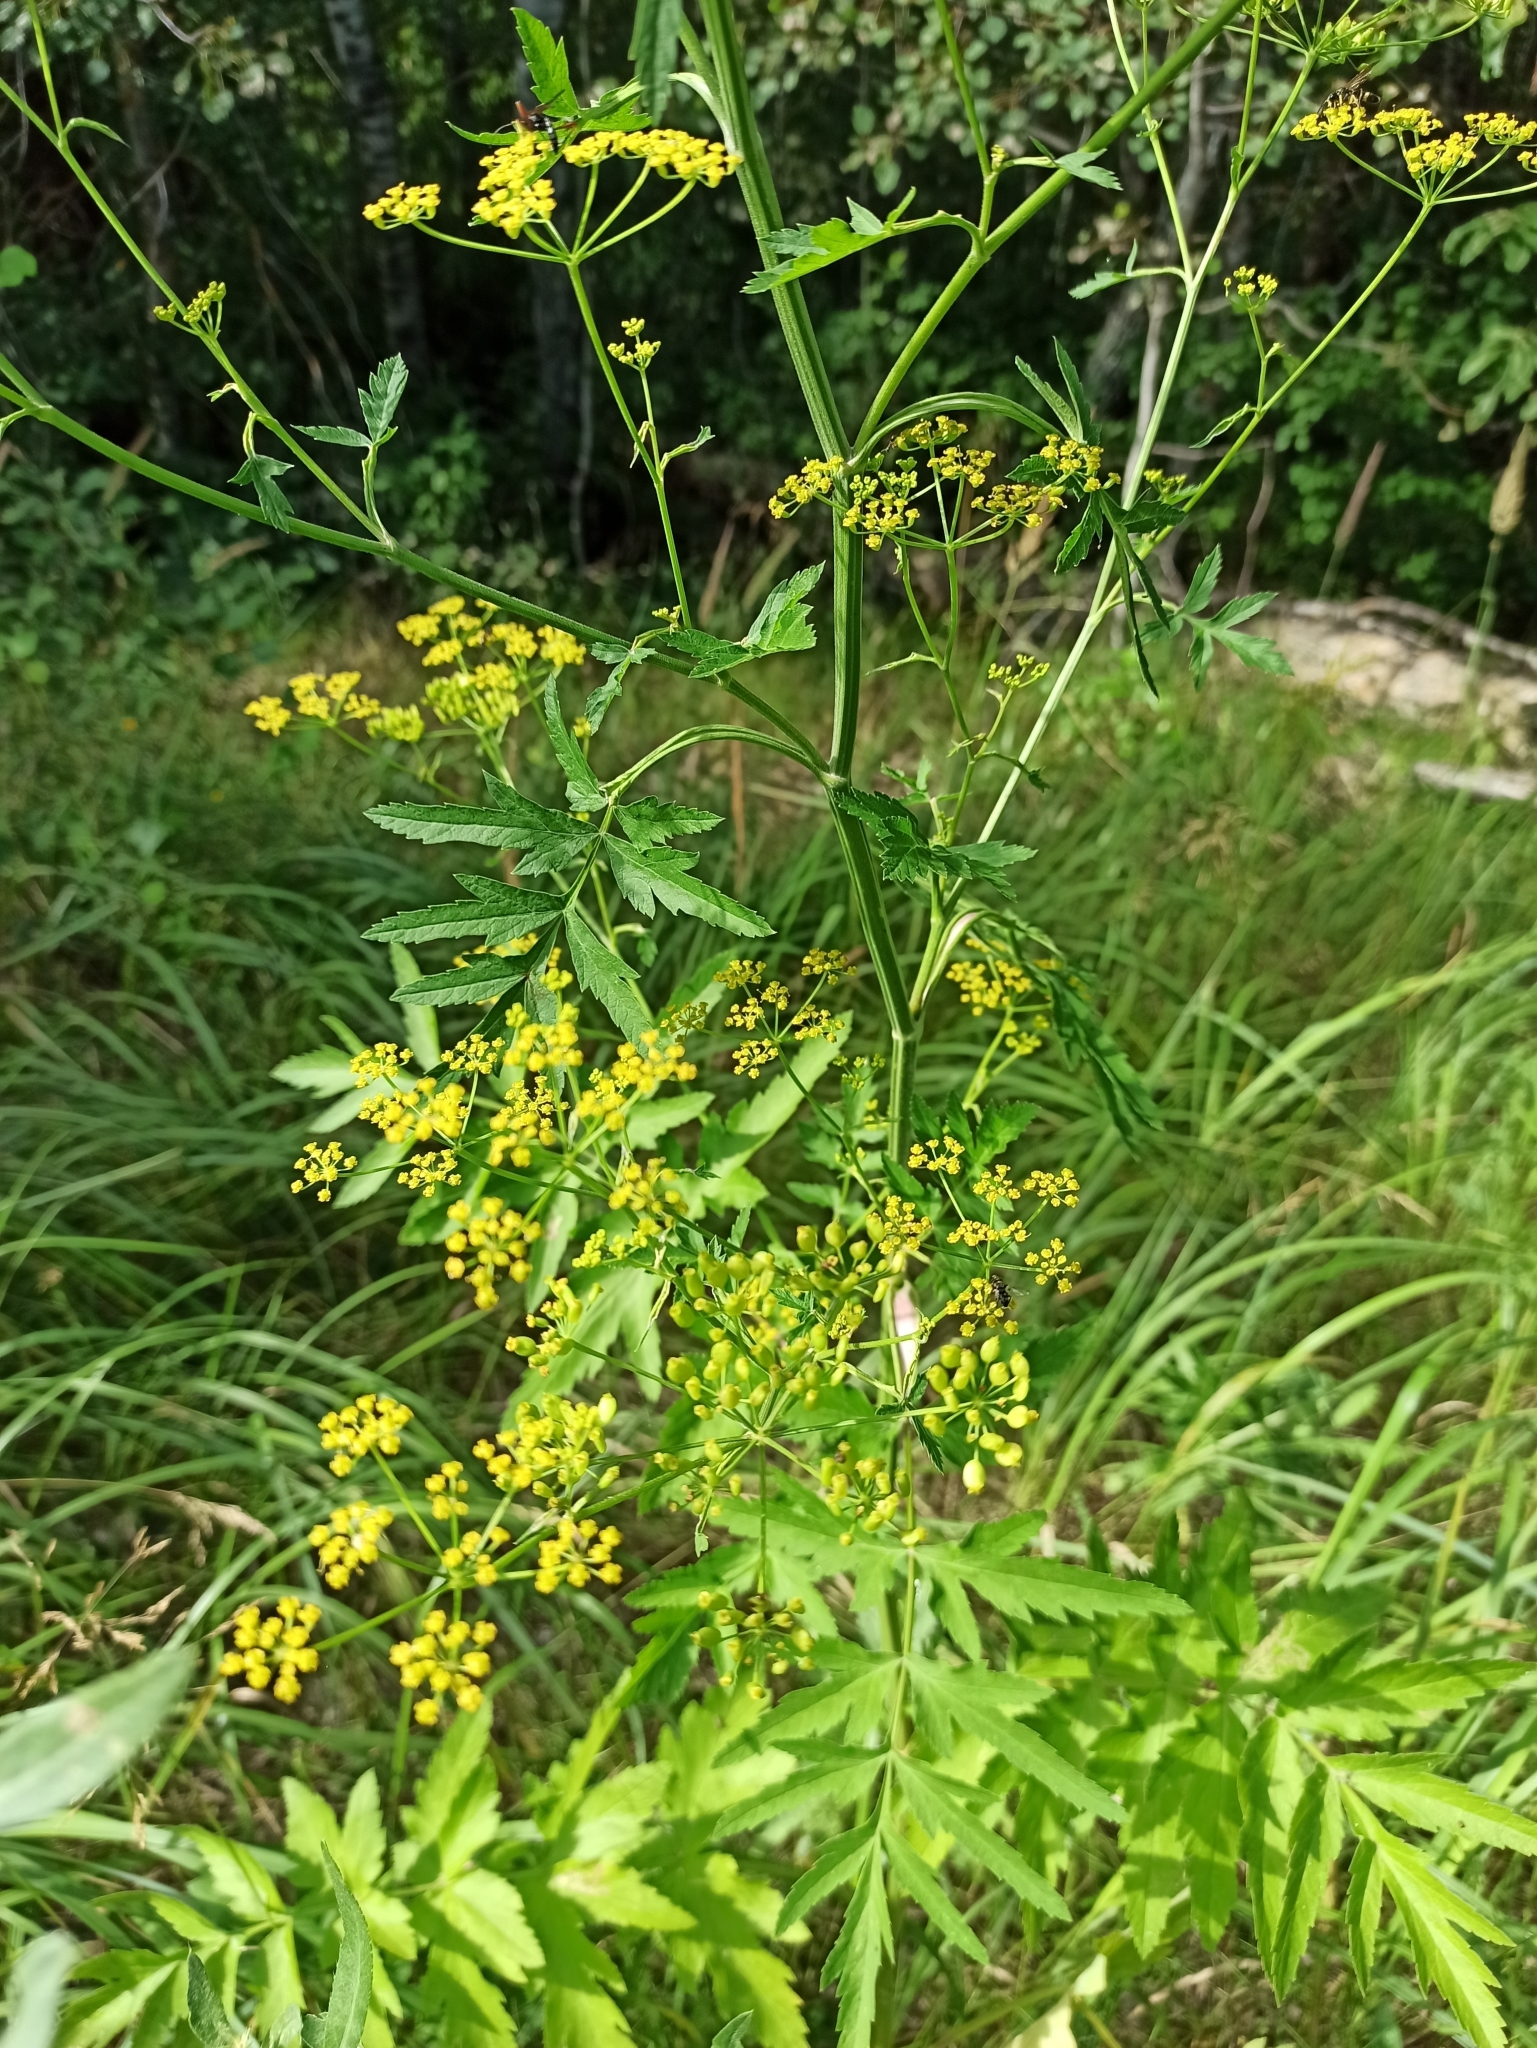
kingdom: Plantae
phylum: Tracheophyta
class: Magnoliopsida
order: Apiales
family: Apiaceae
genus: Pastinaca
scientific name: Pastinaca sativa
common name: Wild parsnip
